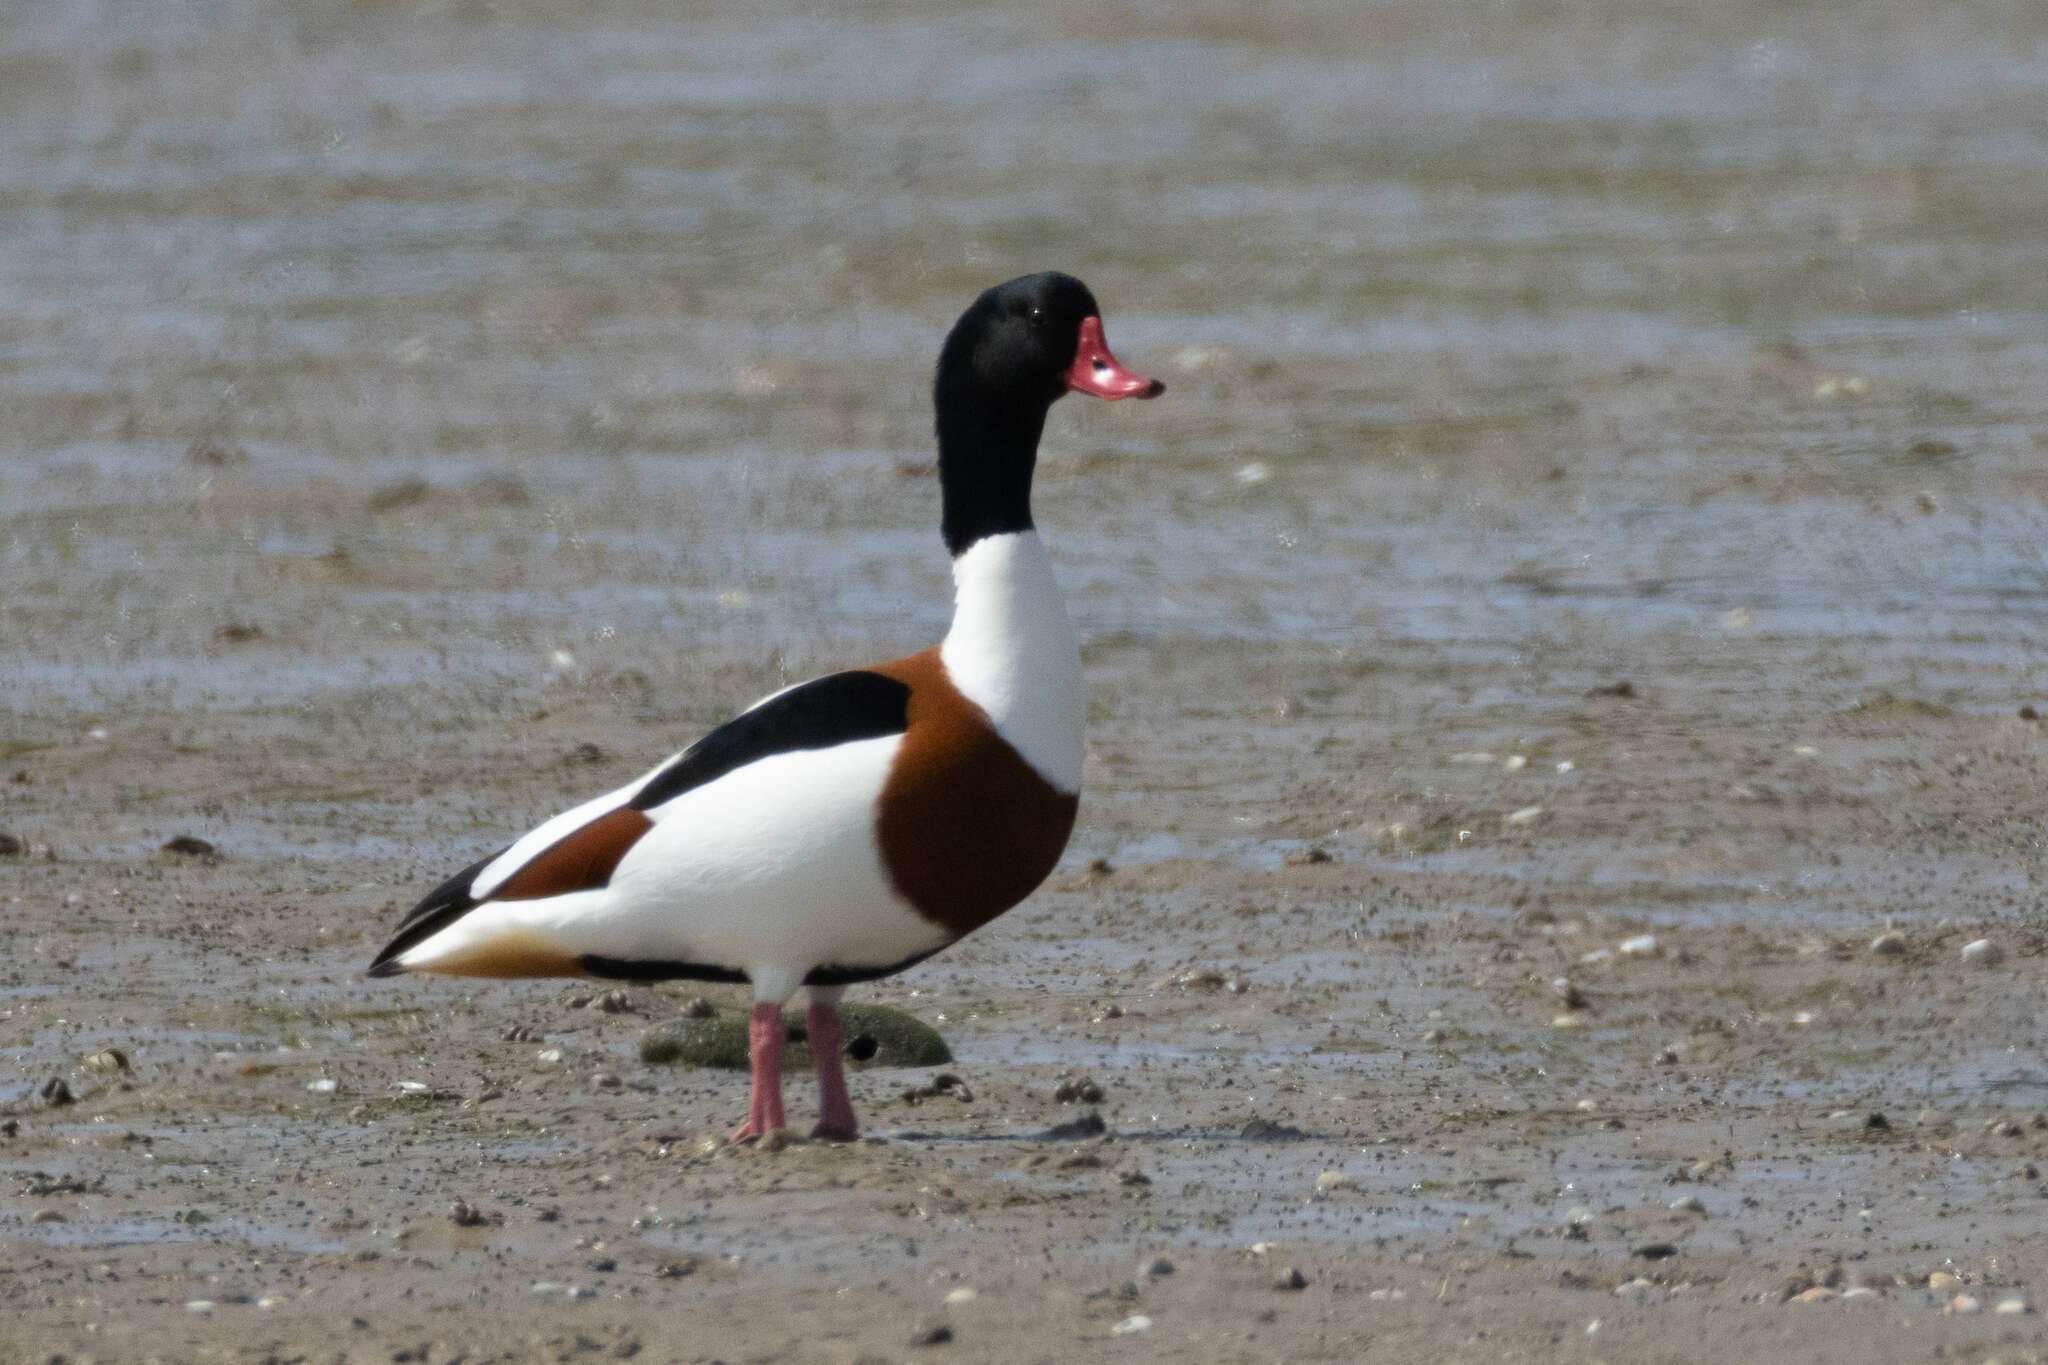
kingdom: Animalia
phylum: Chordata
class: Aves
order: Anseriformes
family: Anatidae
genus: Tadorna
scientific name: Tadorna tadorna
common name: Common shelduck
